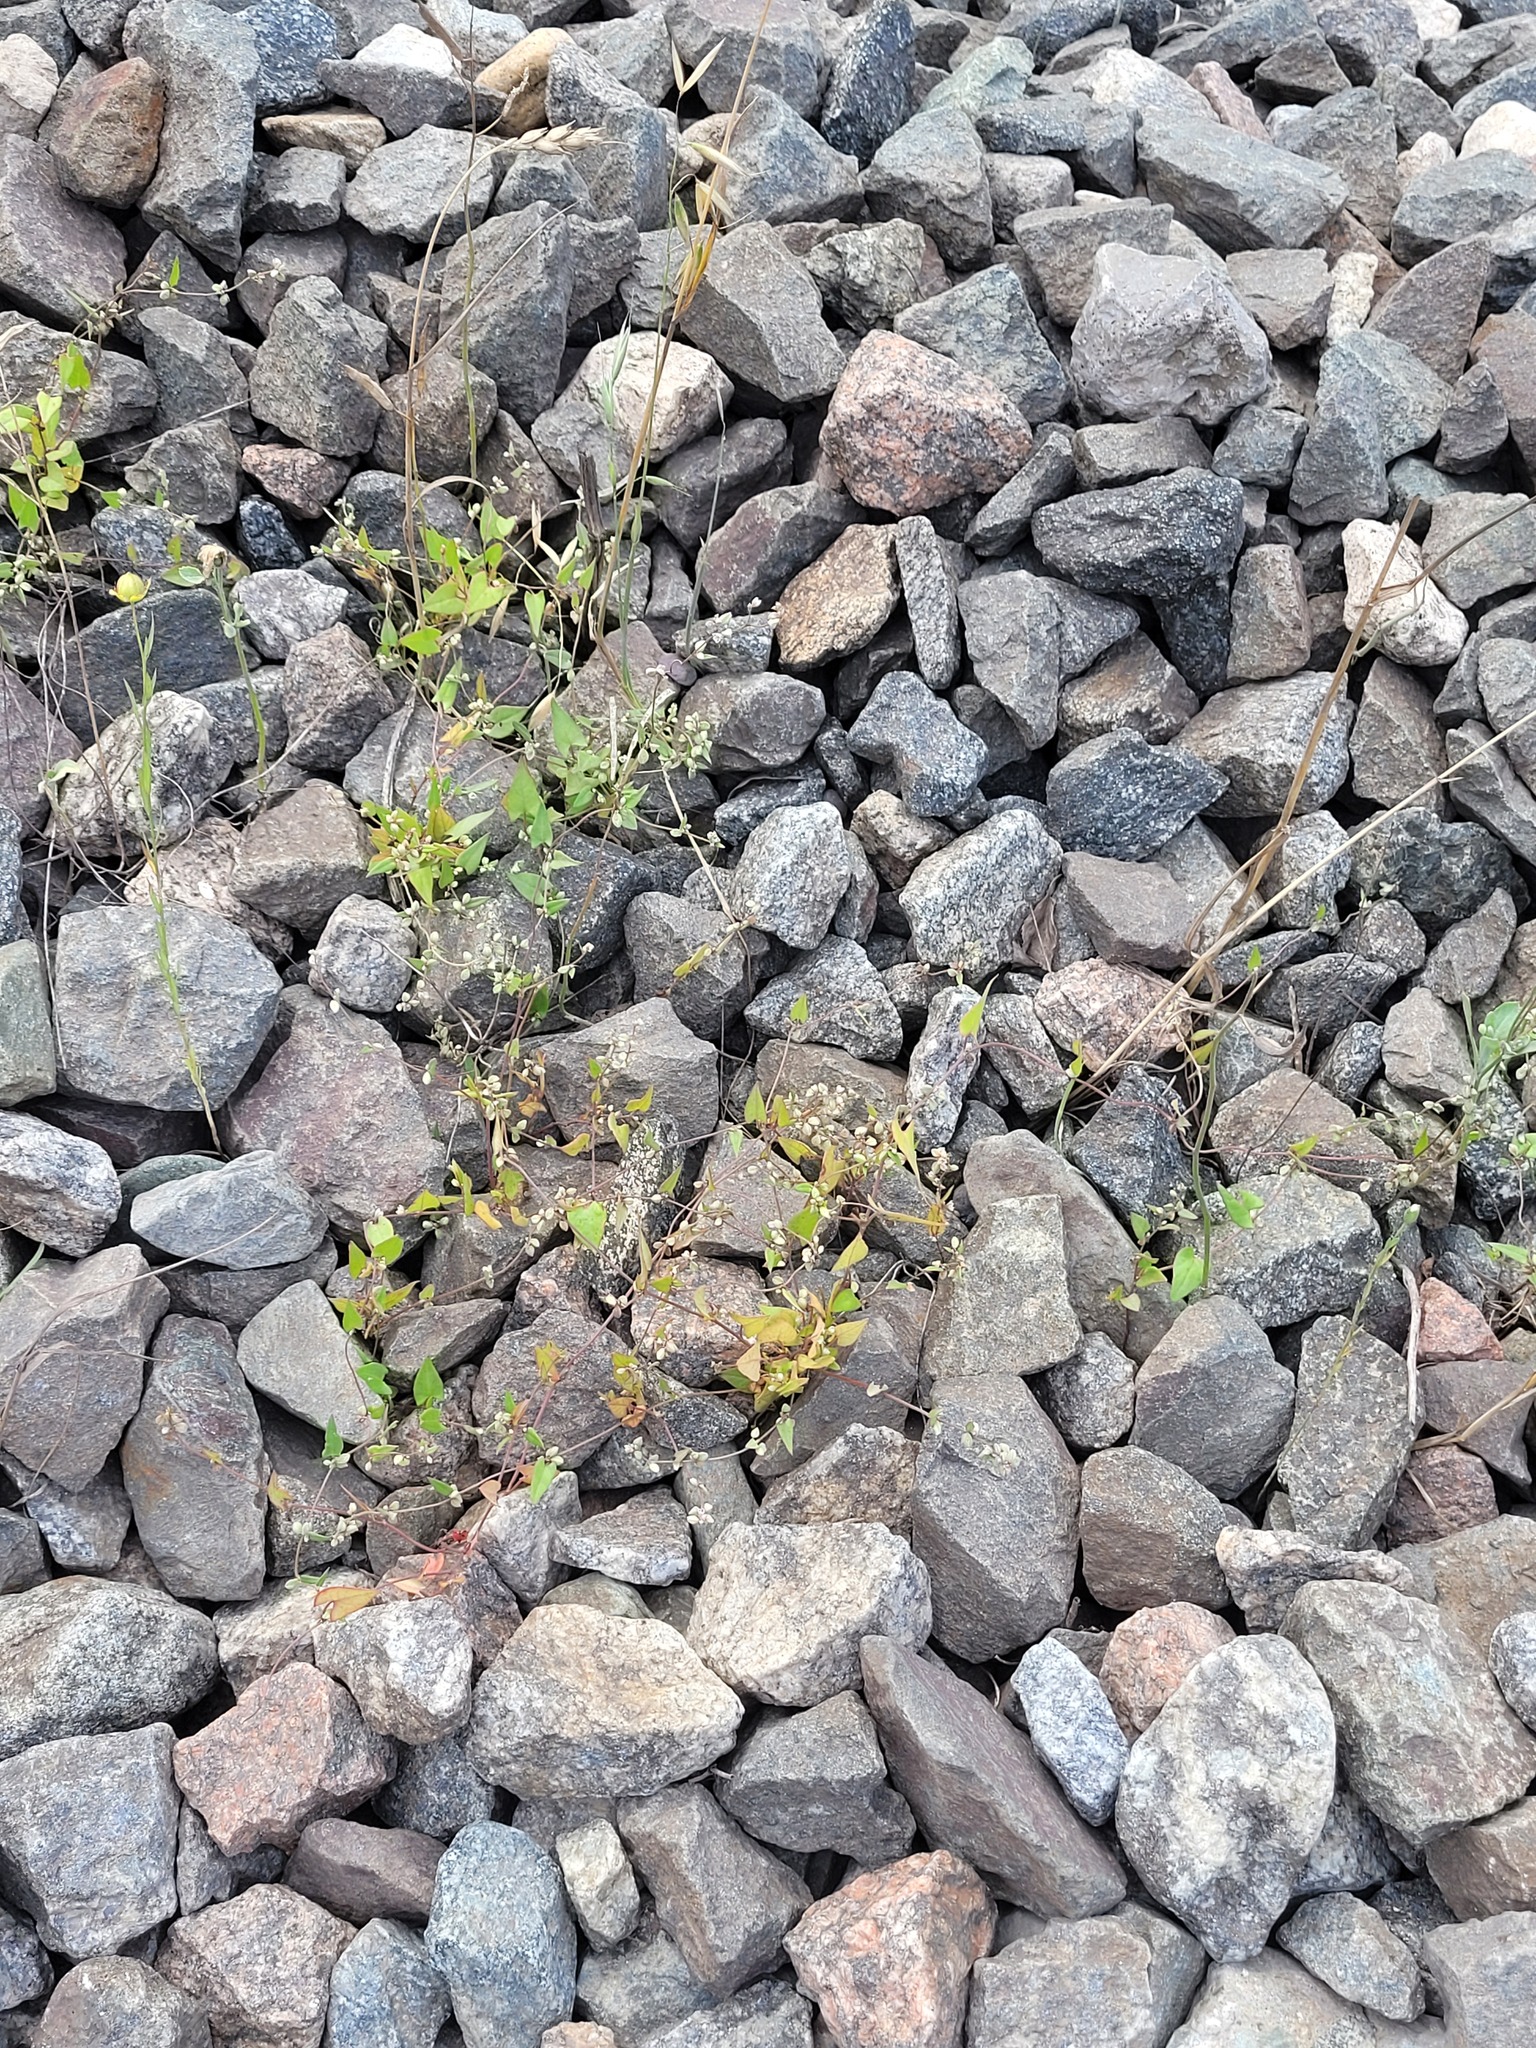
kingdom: Plantae
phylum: Tracheophyta
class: Magnoliopsida
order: Caryophyllales
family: Polygonaceae
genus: Fallopia
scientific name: Fallopia convolvulus
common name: Black bindweed
